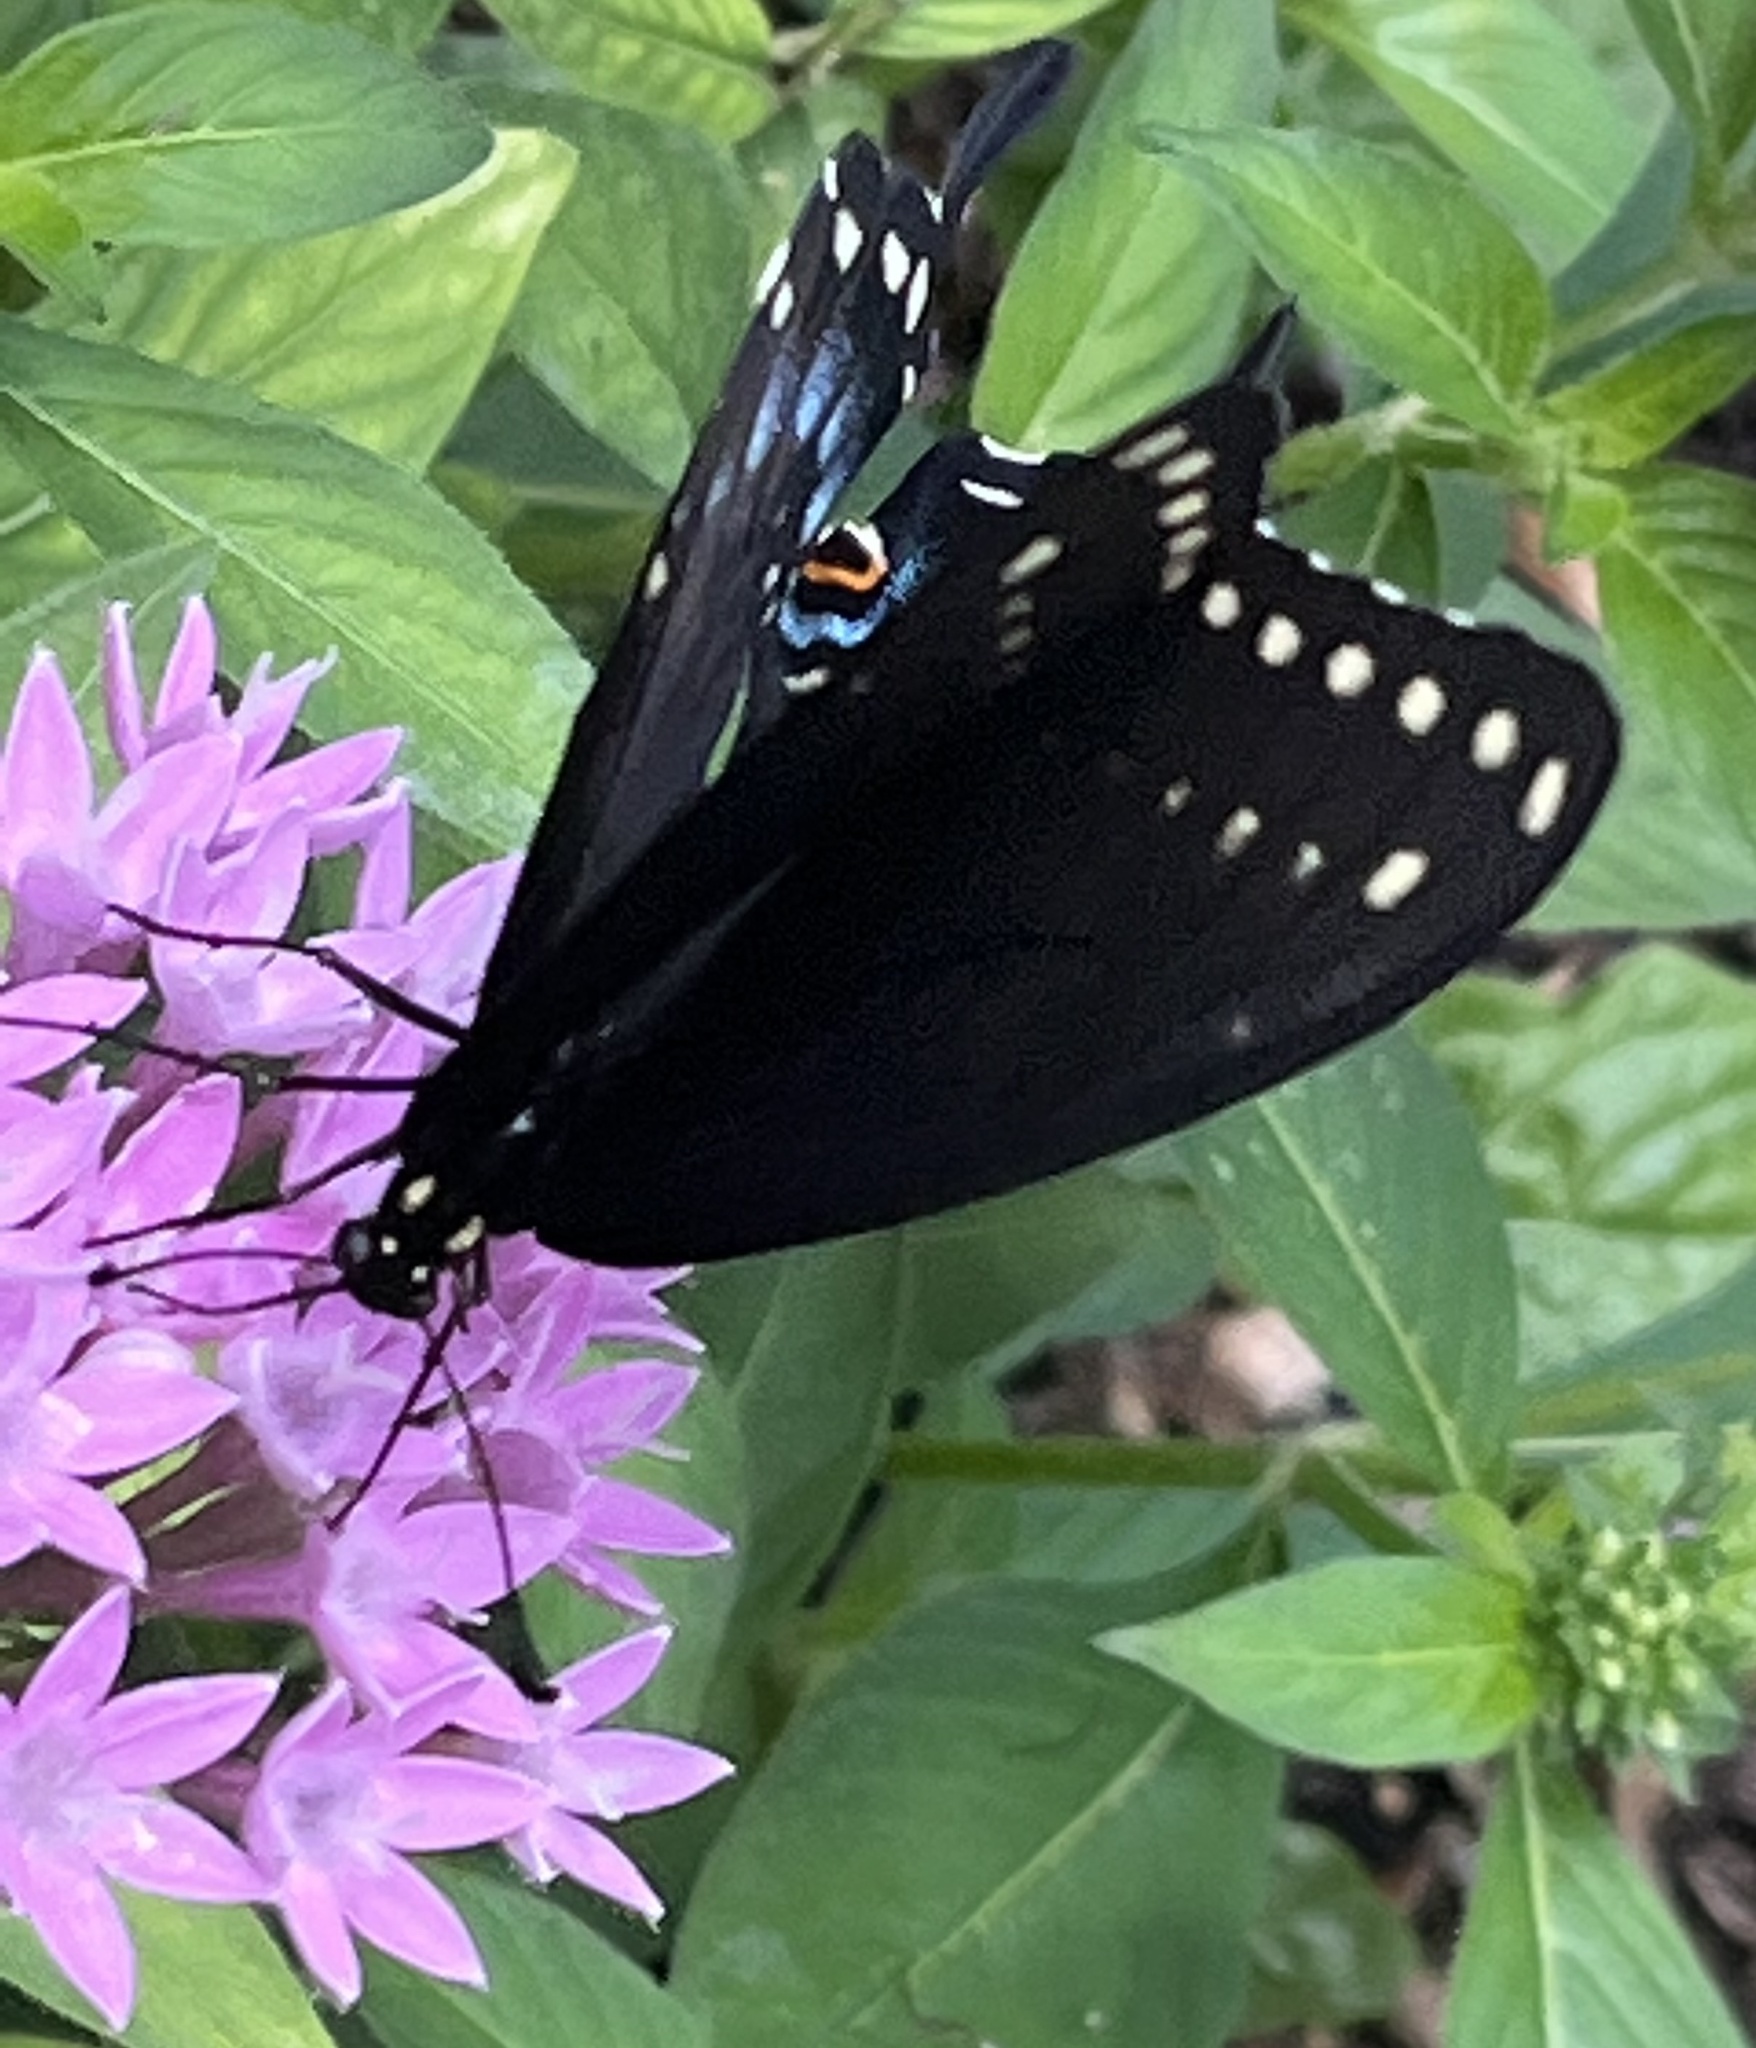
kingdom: Animalia
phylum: Arthropoda
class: Insecta
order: Lepidoptera
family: Papilionidae
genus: Papilio
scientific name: Papilio polyxenes
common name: Black swallowtail
